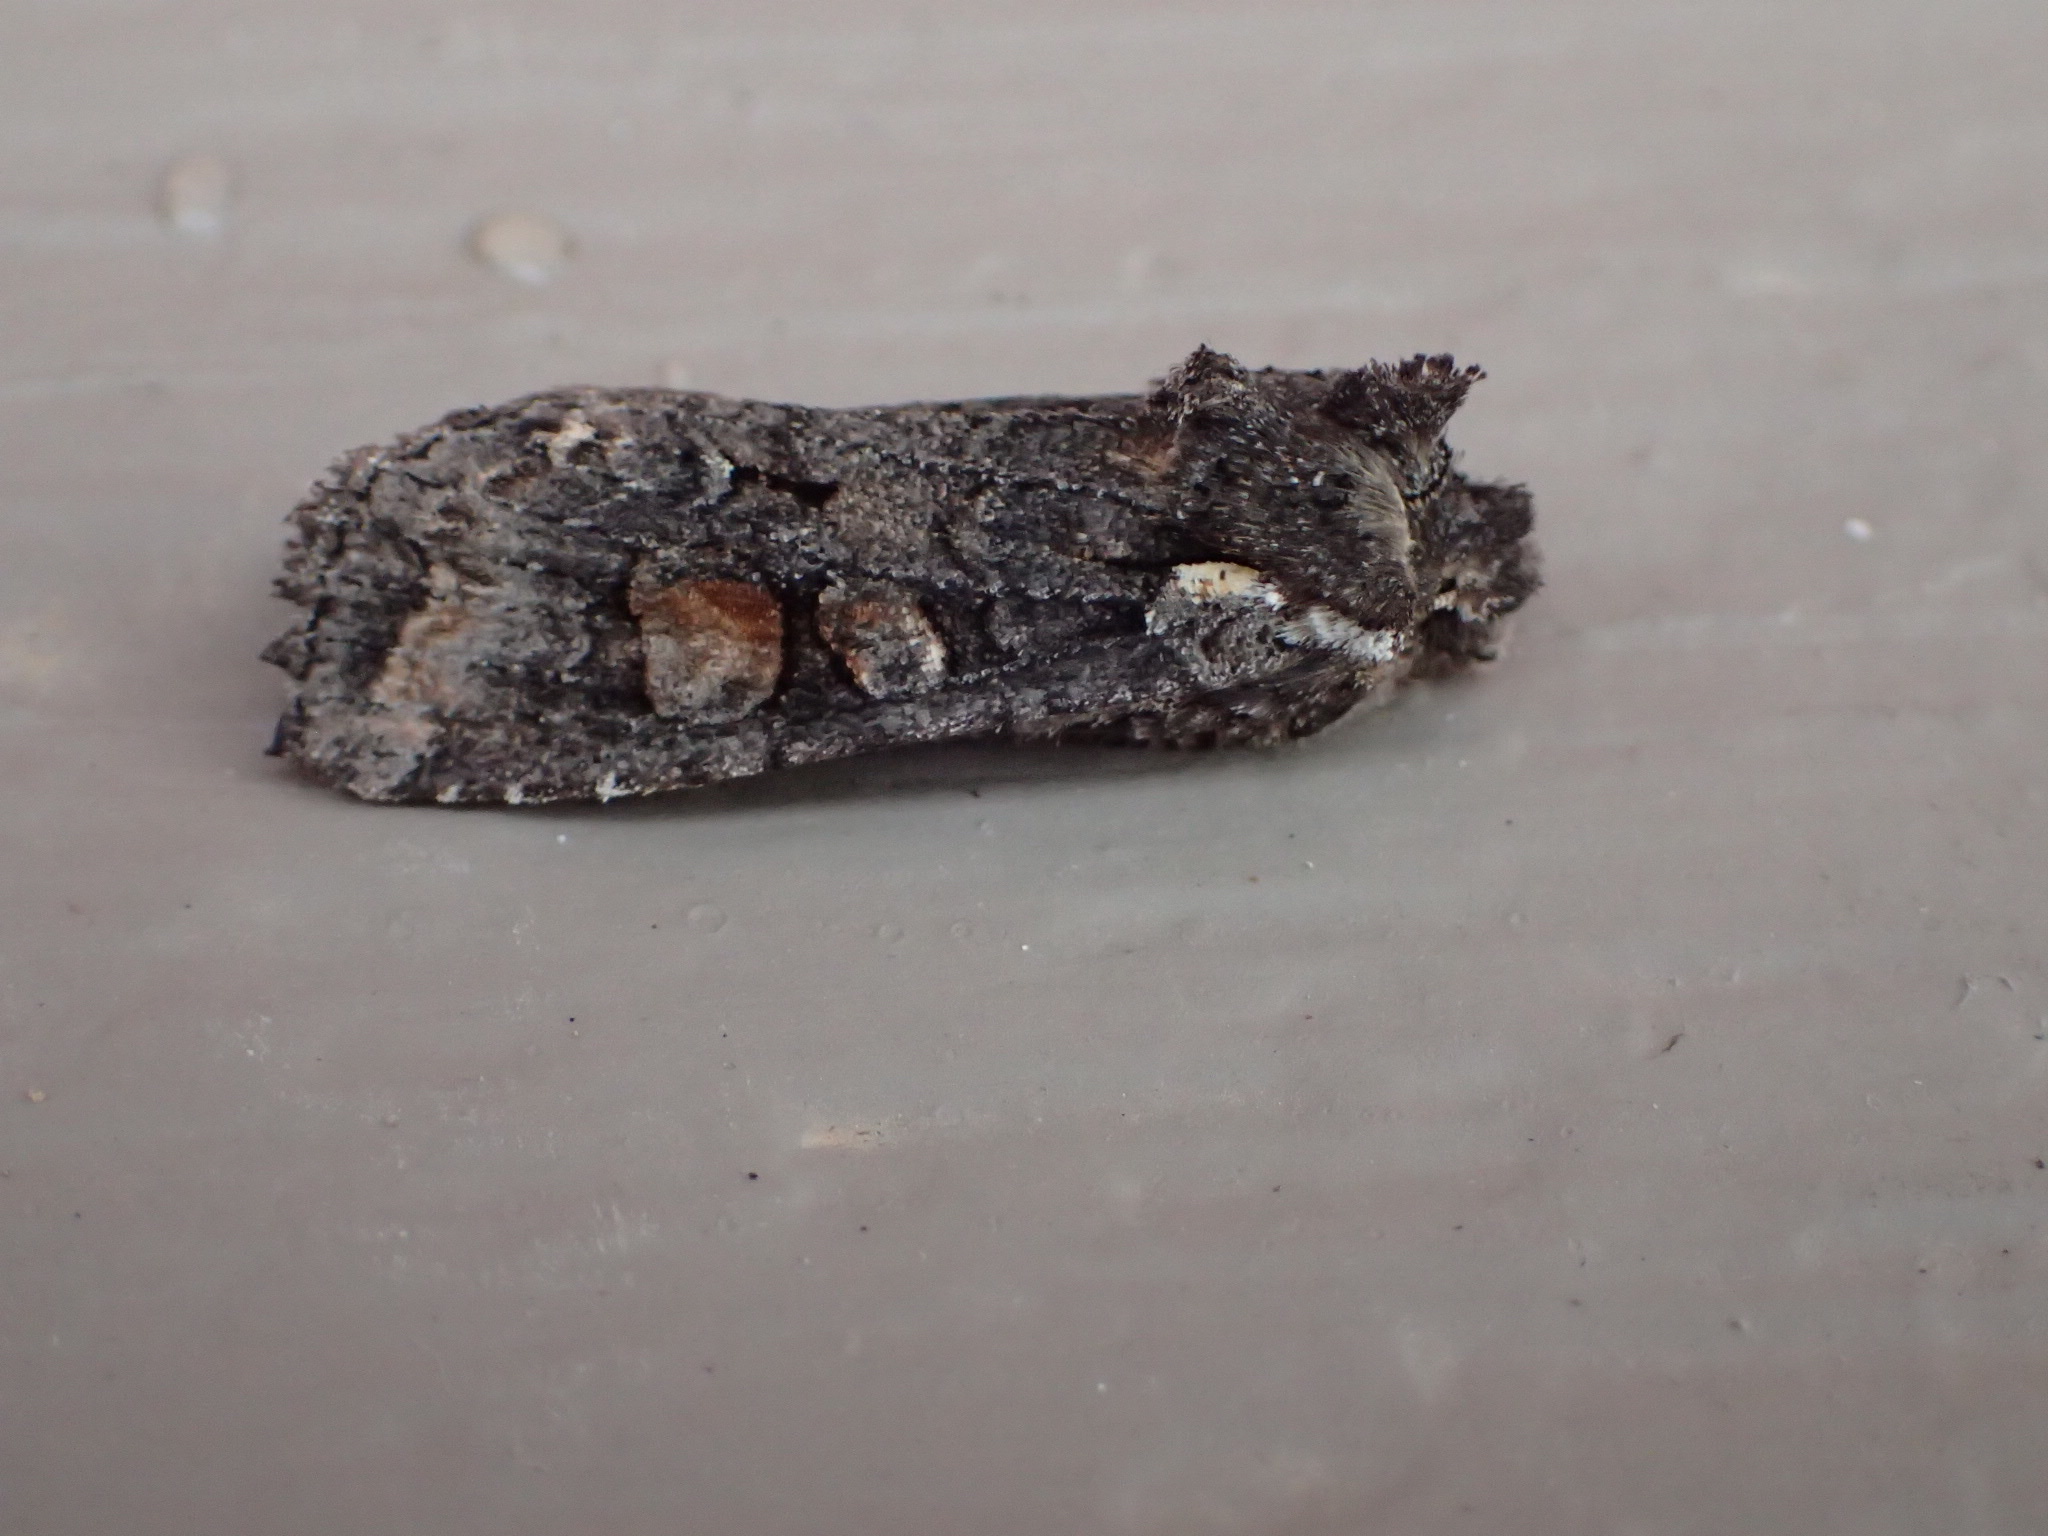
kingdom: Animalia
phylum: Arthropoda
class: Insecta
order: Lepidoptera
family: Noctuidae
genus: Lithophane
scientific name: Lithophane pexata
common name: Plush-naped pinion moth
